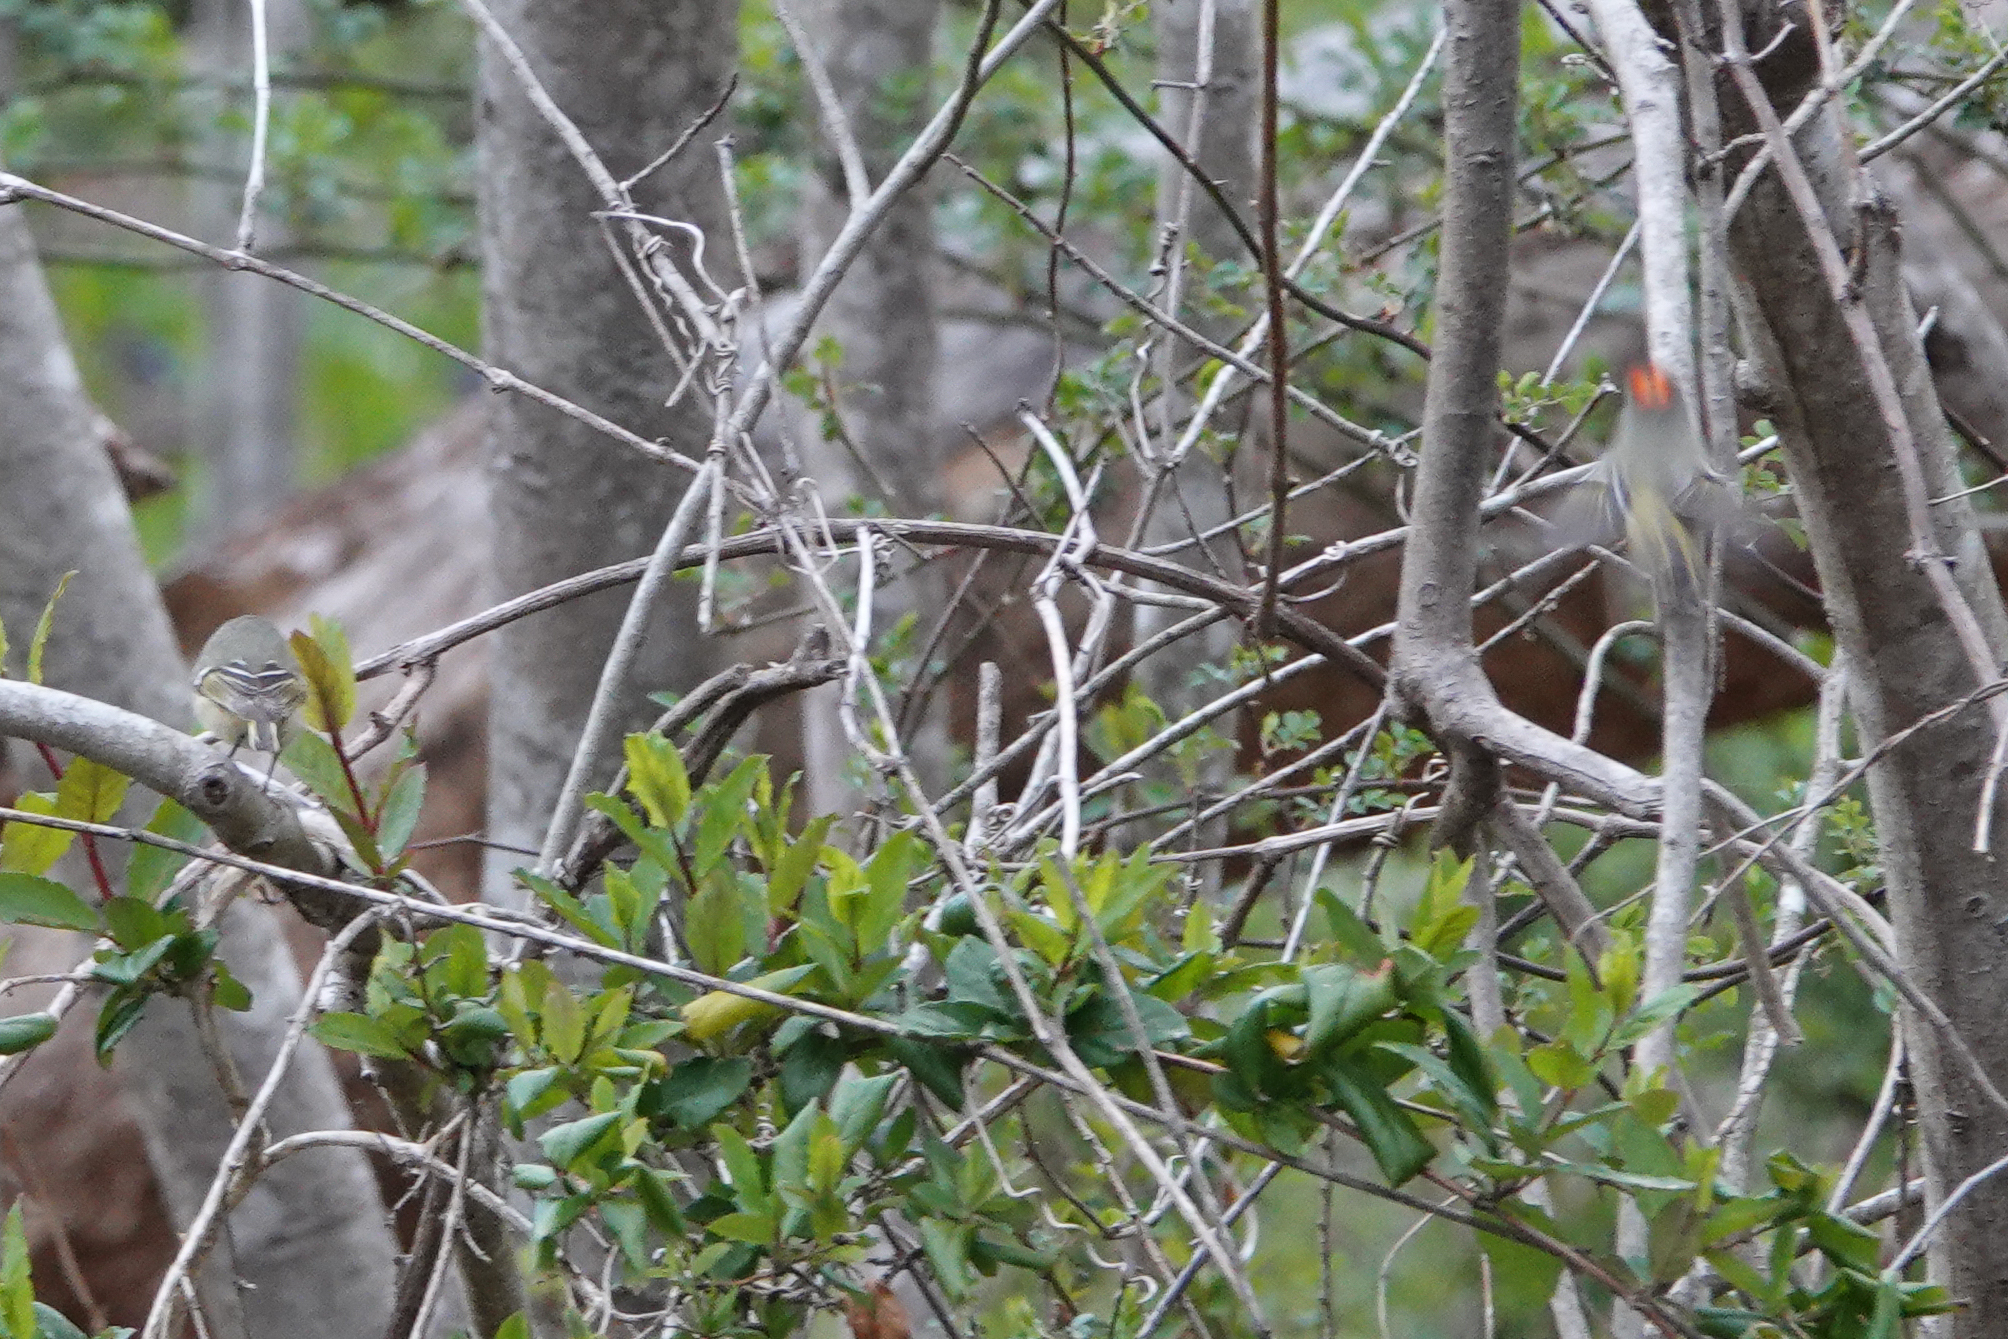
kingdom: Animalia
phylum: Chordata
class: Aves
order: Passeriformes
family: Regulidae
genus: Regulus
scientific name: Regulus calendula
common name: Ruby-crowned kinglet
